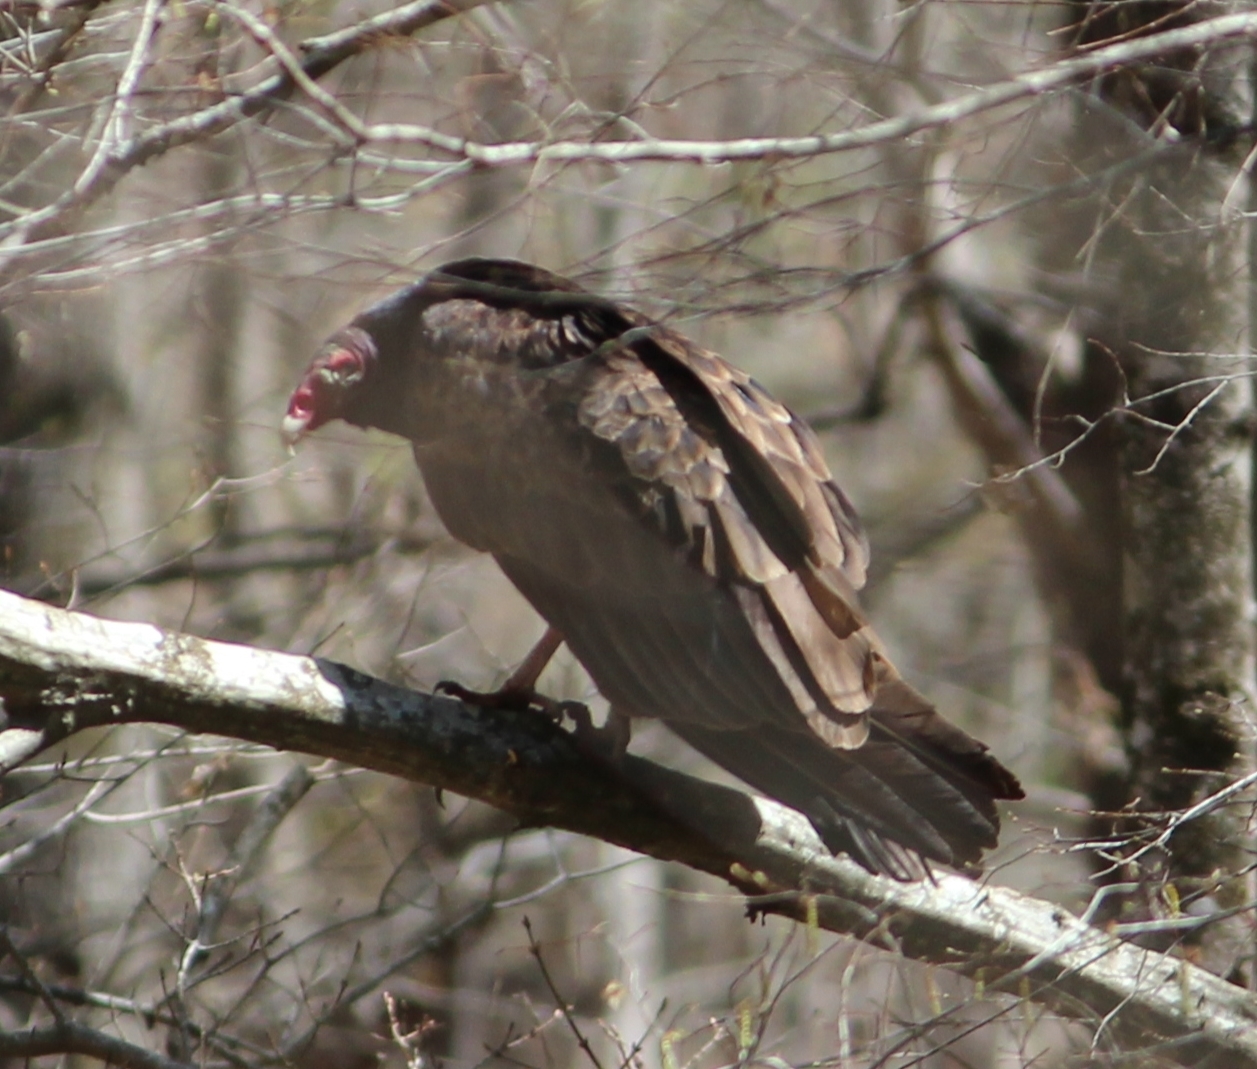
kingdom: Animalia
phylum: Chordata
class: Aves
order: Accipitriformes
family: Cathartidae
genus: Cathartes
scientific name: Cathartes aura
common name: Turkey vulture
